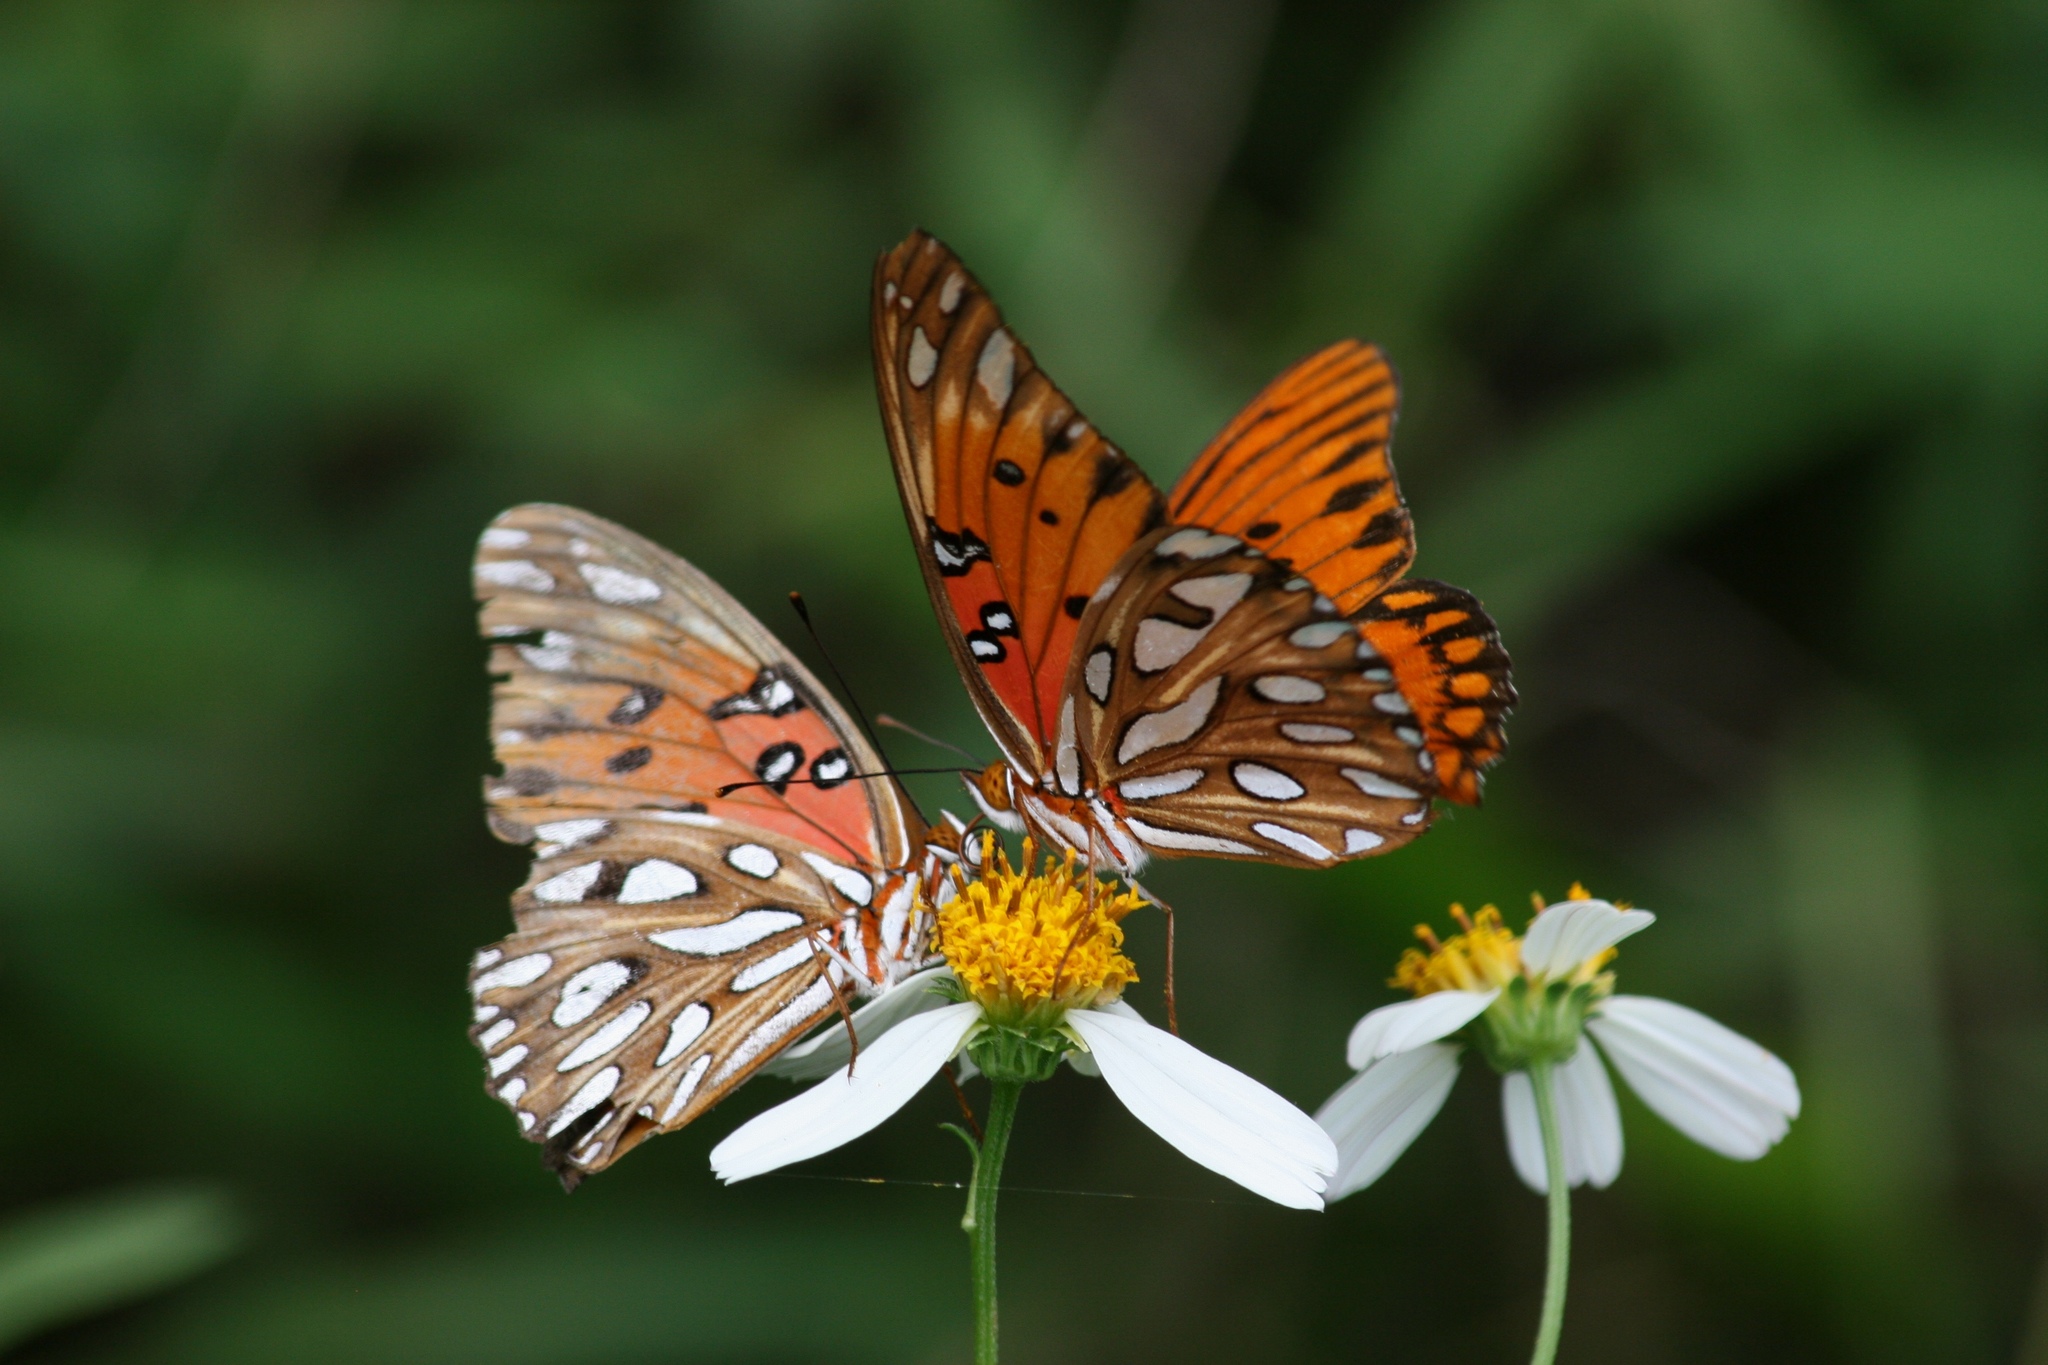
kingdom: Animalia
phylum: Arthropoda
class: Insecta
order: Lepidoptera
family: Nymphalidae
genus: Dione
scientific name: Dione vanillae
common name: Gulf fritillary
